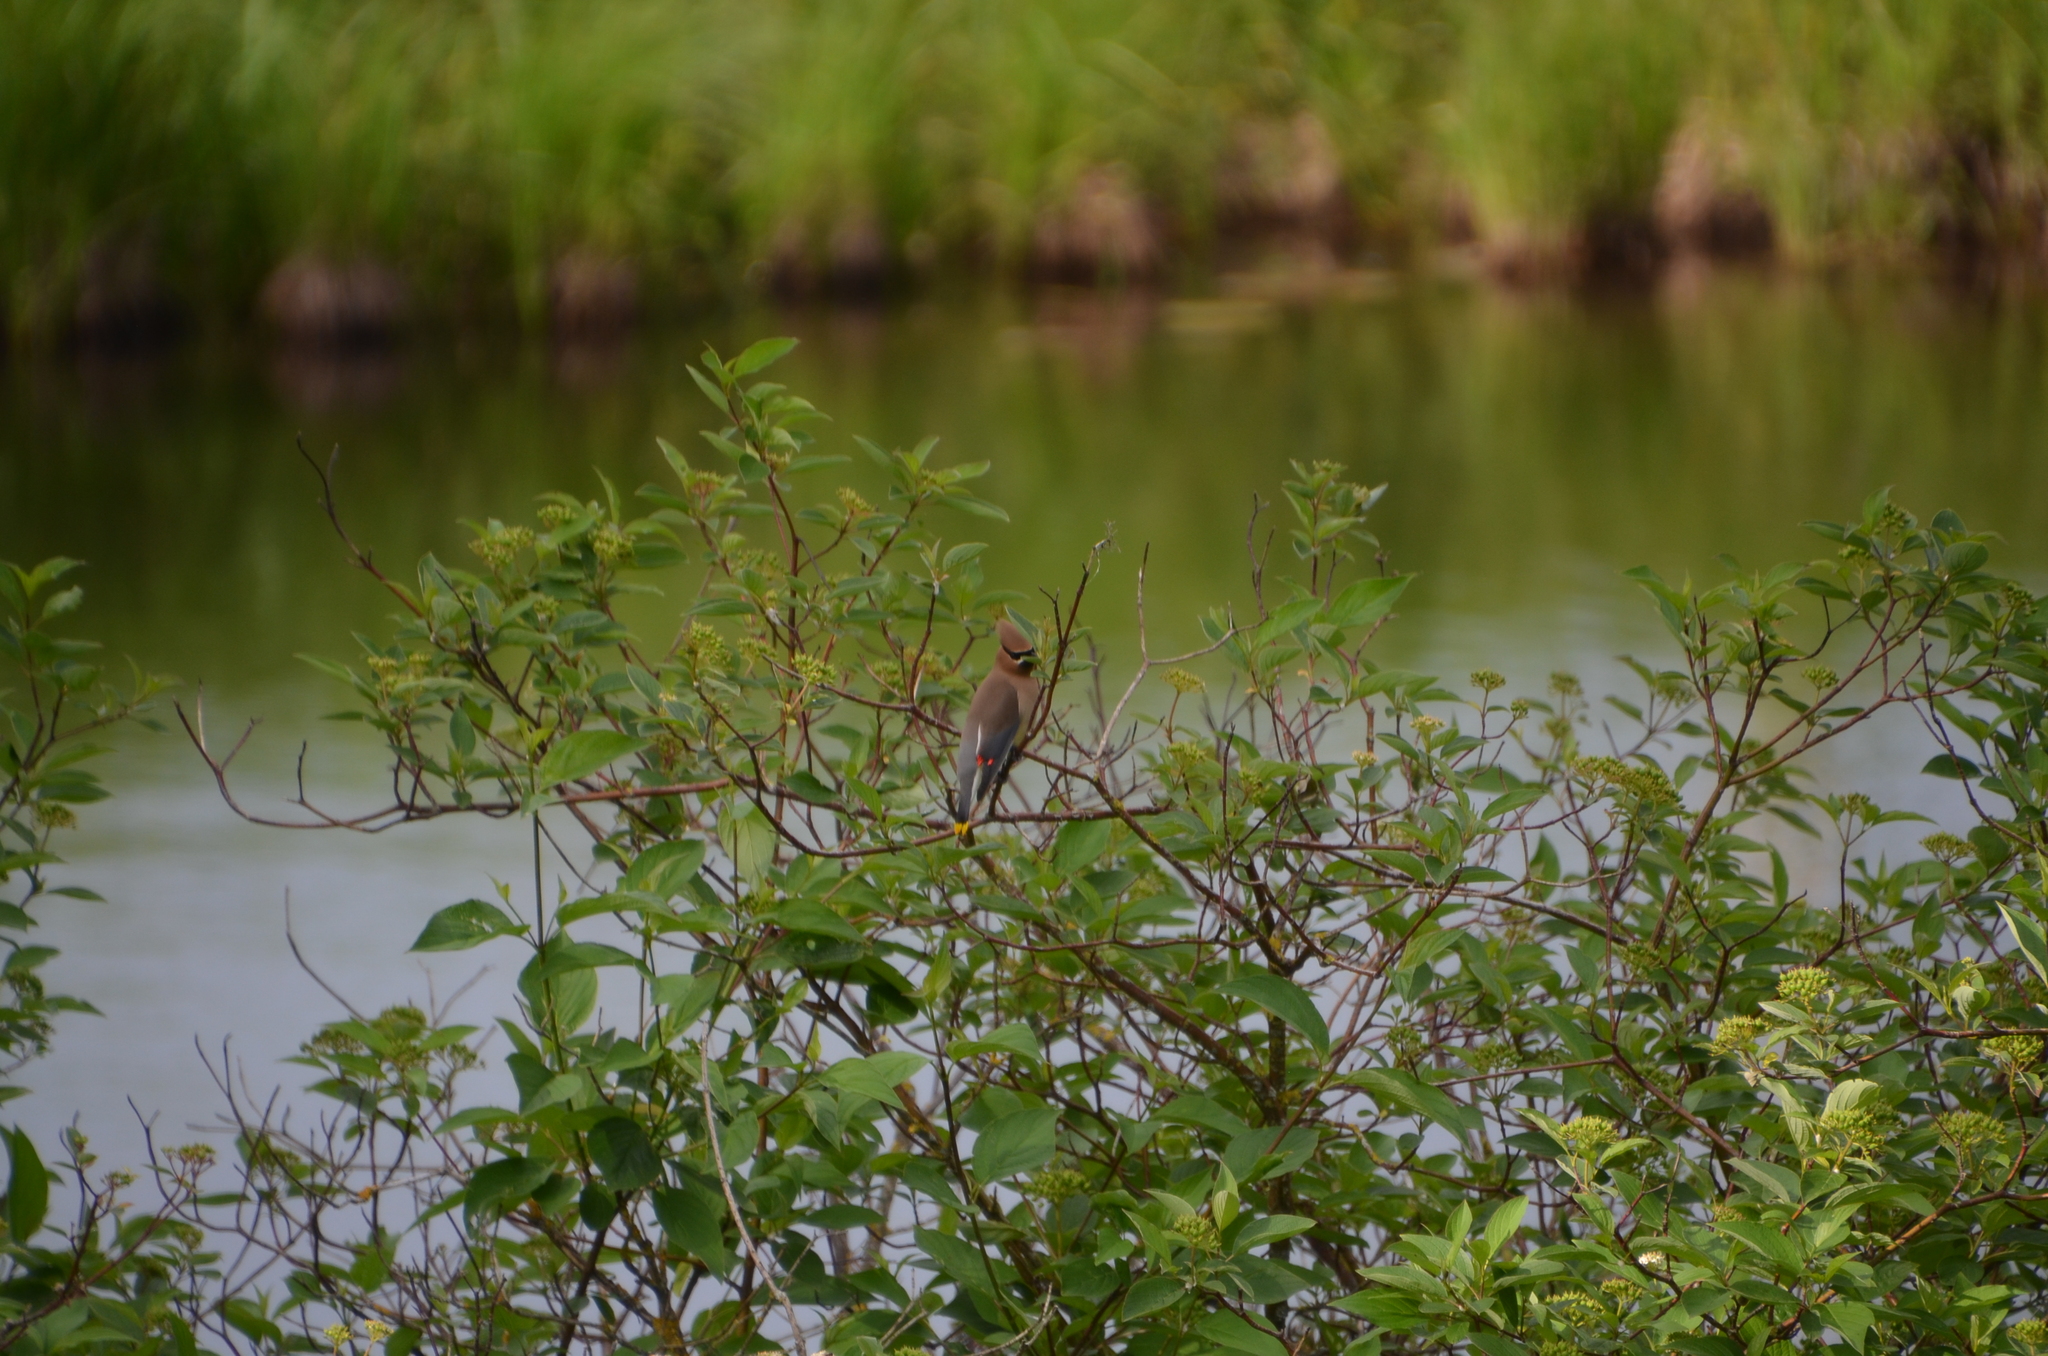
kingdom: Animalia
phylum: Chordata
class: Aves
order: Passeriformes
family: Bombycillidae
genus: Bombycilla
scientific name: Bombycilla cedrorum
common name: Cedar waxwing
